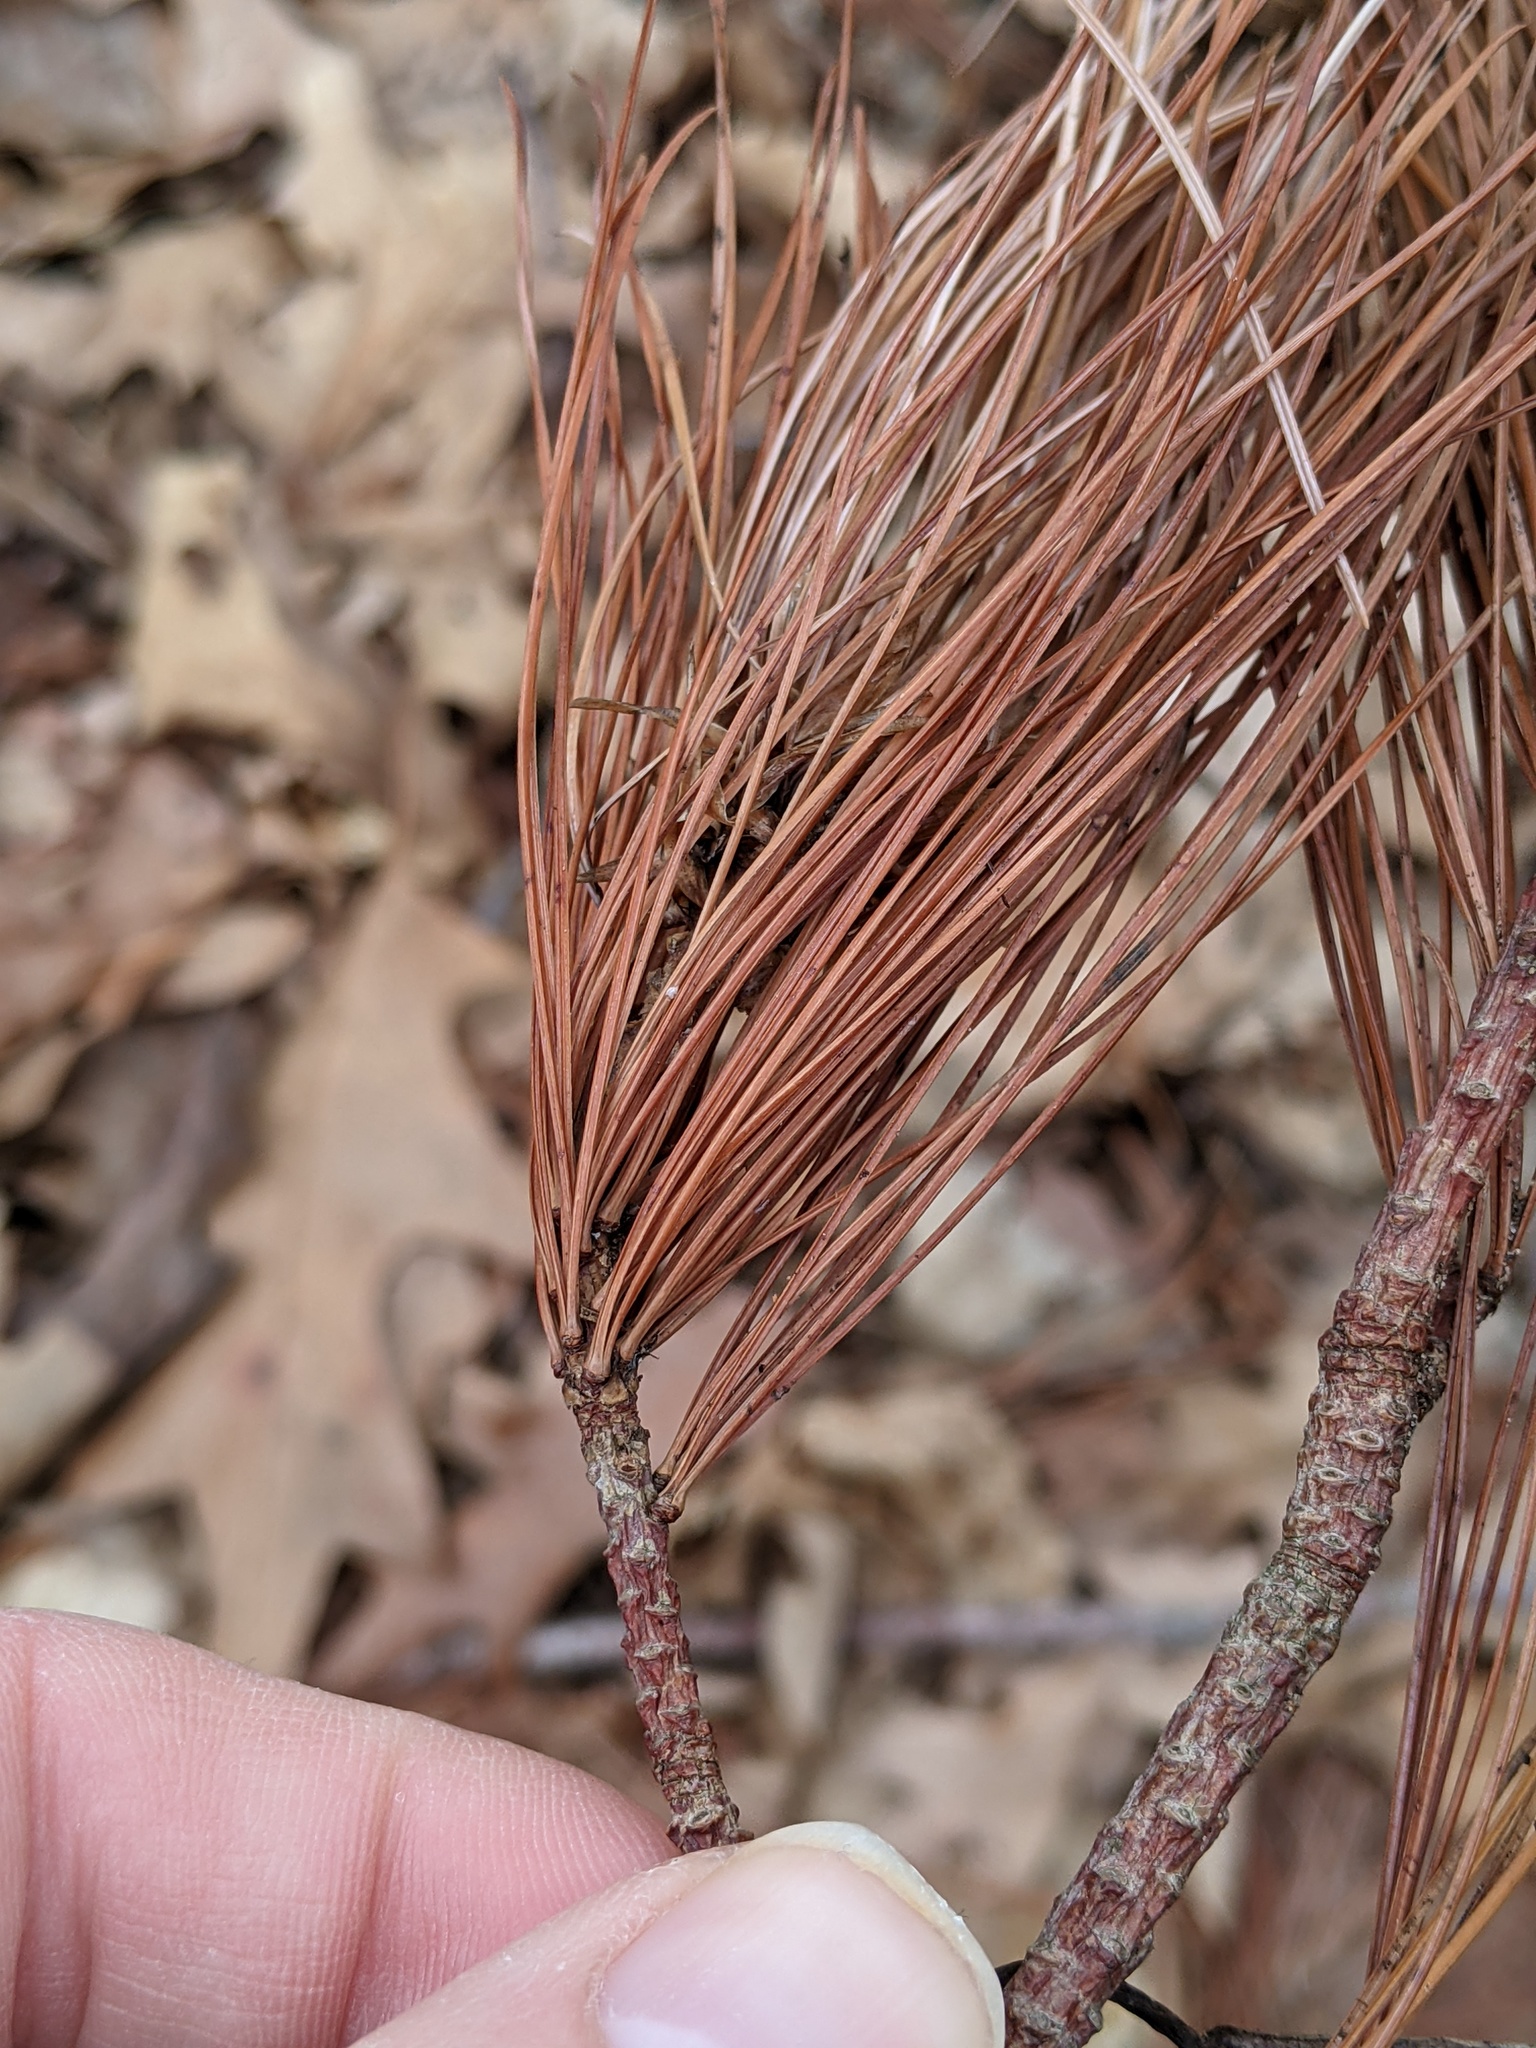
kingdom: Plantae
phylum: Tracheophyta
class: Pinopsida
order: Pinales
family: Pinaceae
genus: Pinus
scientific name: Pinus strobus
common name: Weymouth pine
